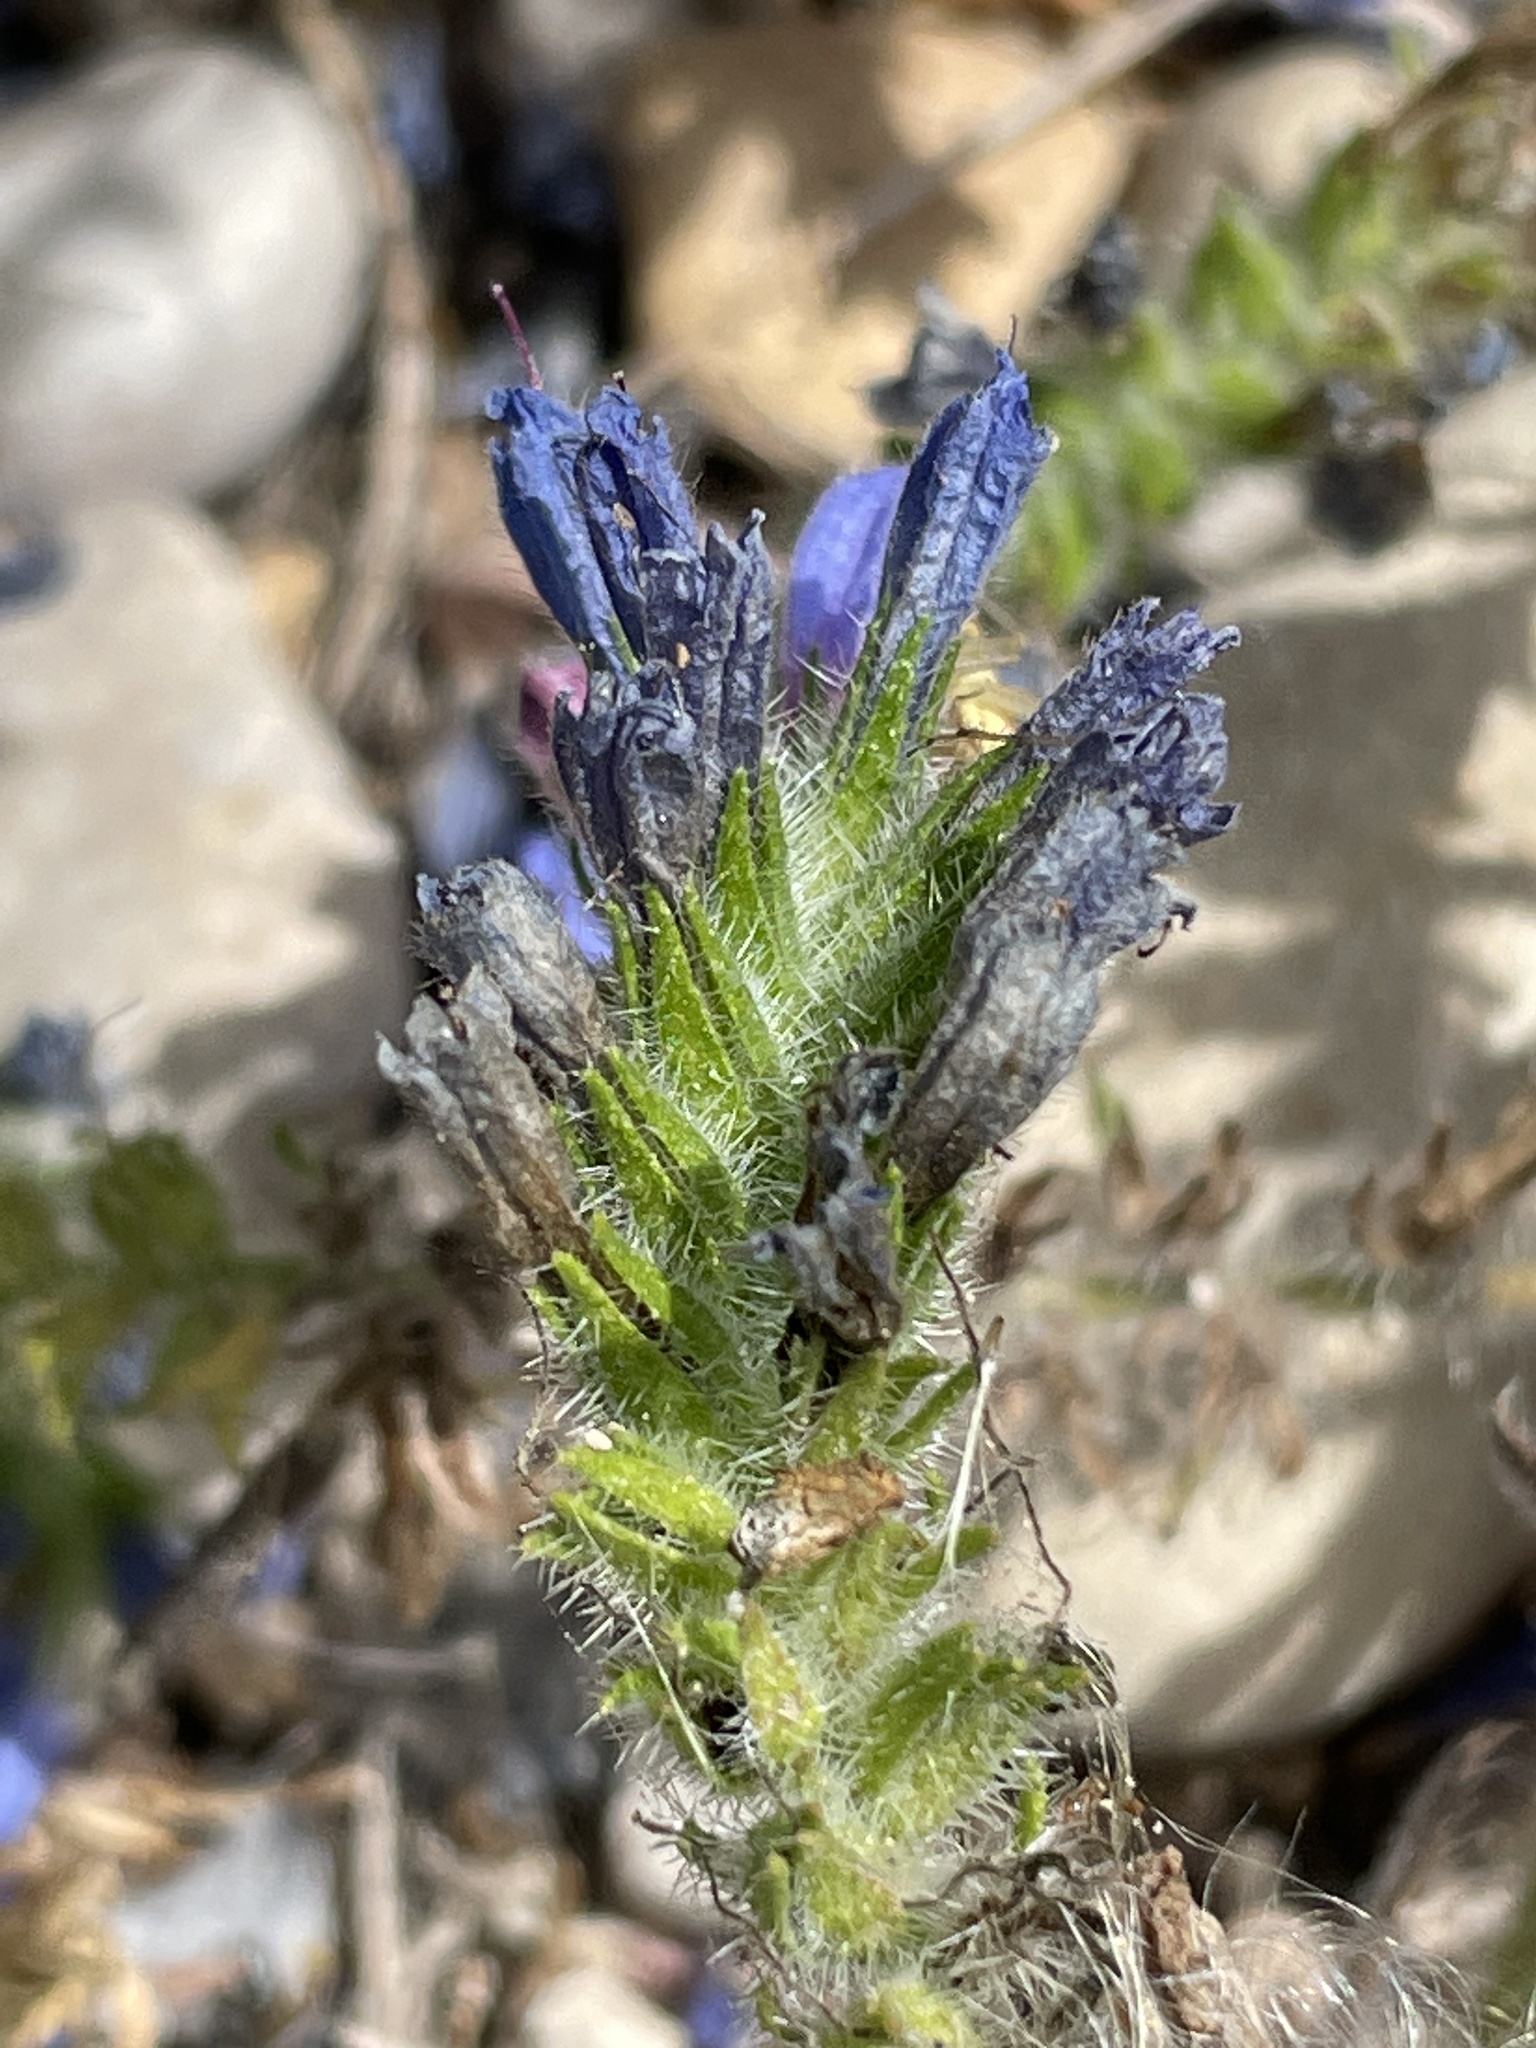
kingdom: Plantae
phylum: Tracheophyta
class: Magnoliopsida
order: Boraginales
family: Boraginaceae
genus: Echium
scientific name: Echium tenue
